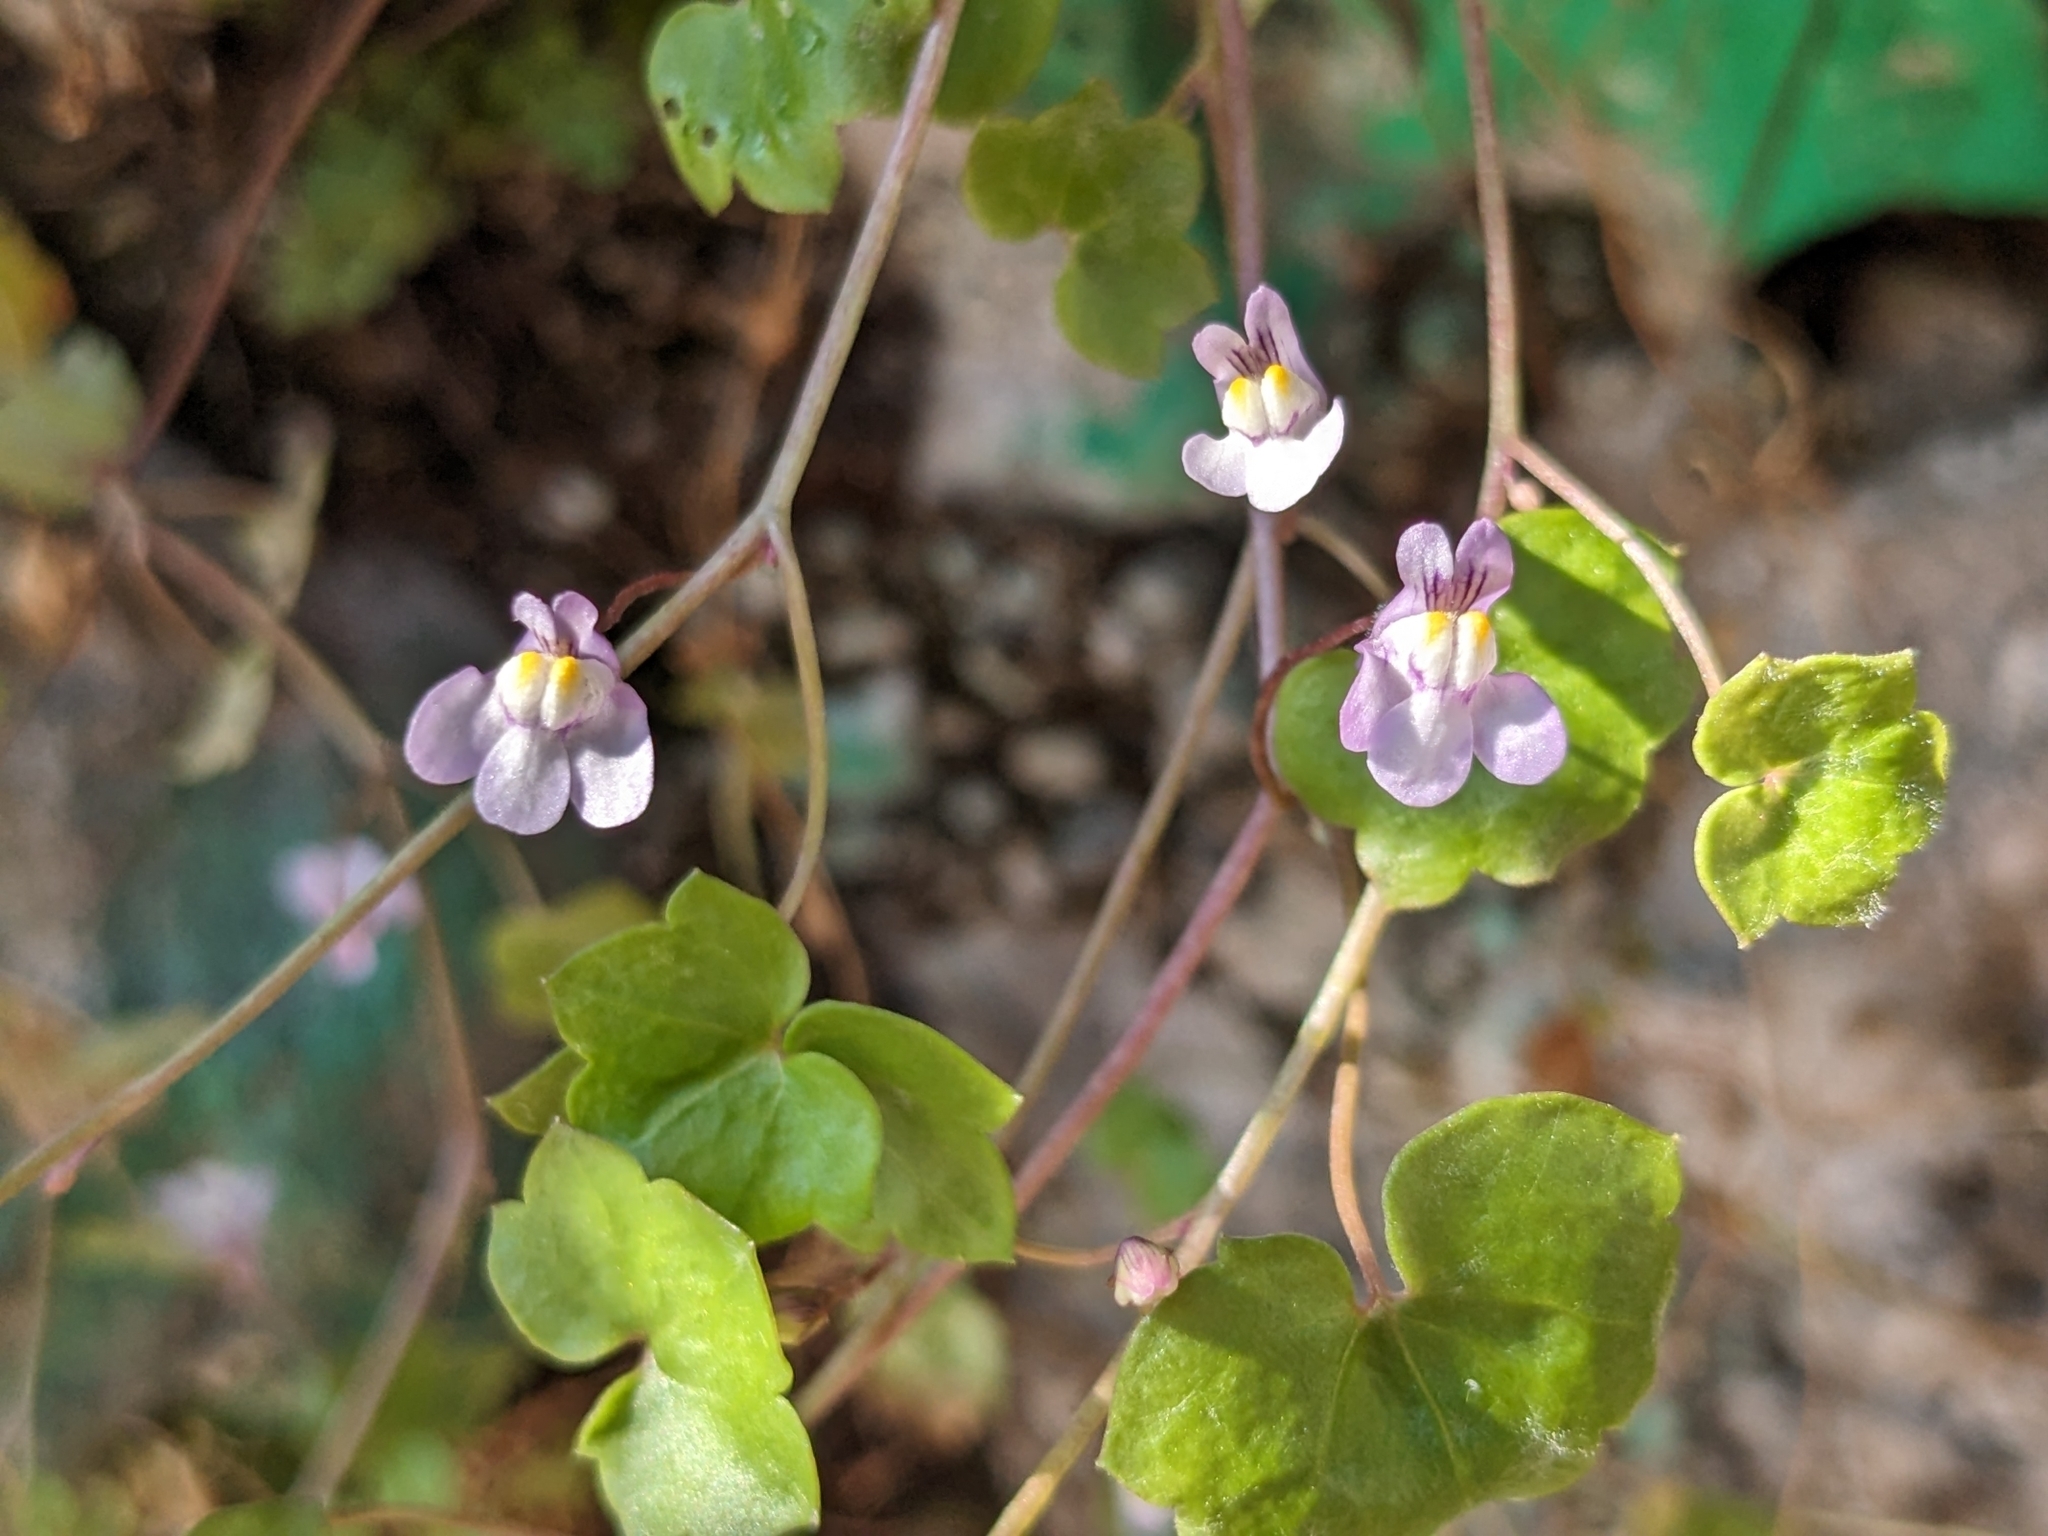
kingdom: Plantae
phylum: Tracheophyta
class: Magnoliopsida
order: Lamiales
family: Plantaginaceae
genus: Cymbalaria
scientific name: Cymbalaria muralis
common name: Ivy-leaved toadflax
